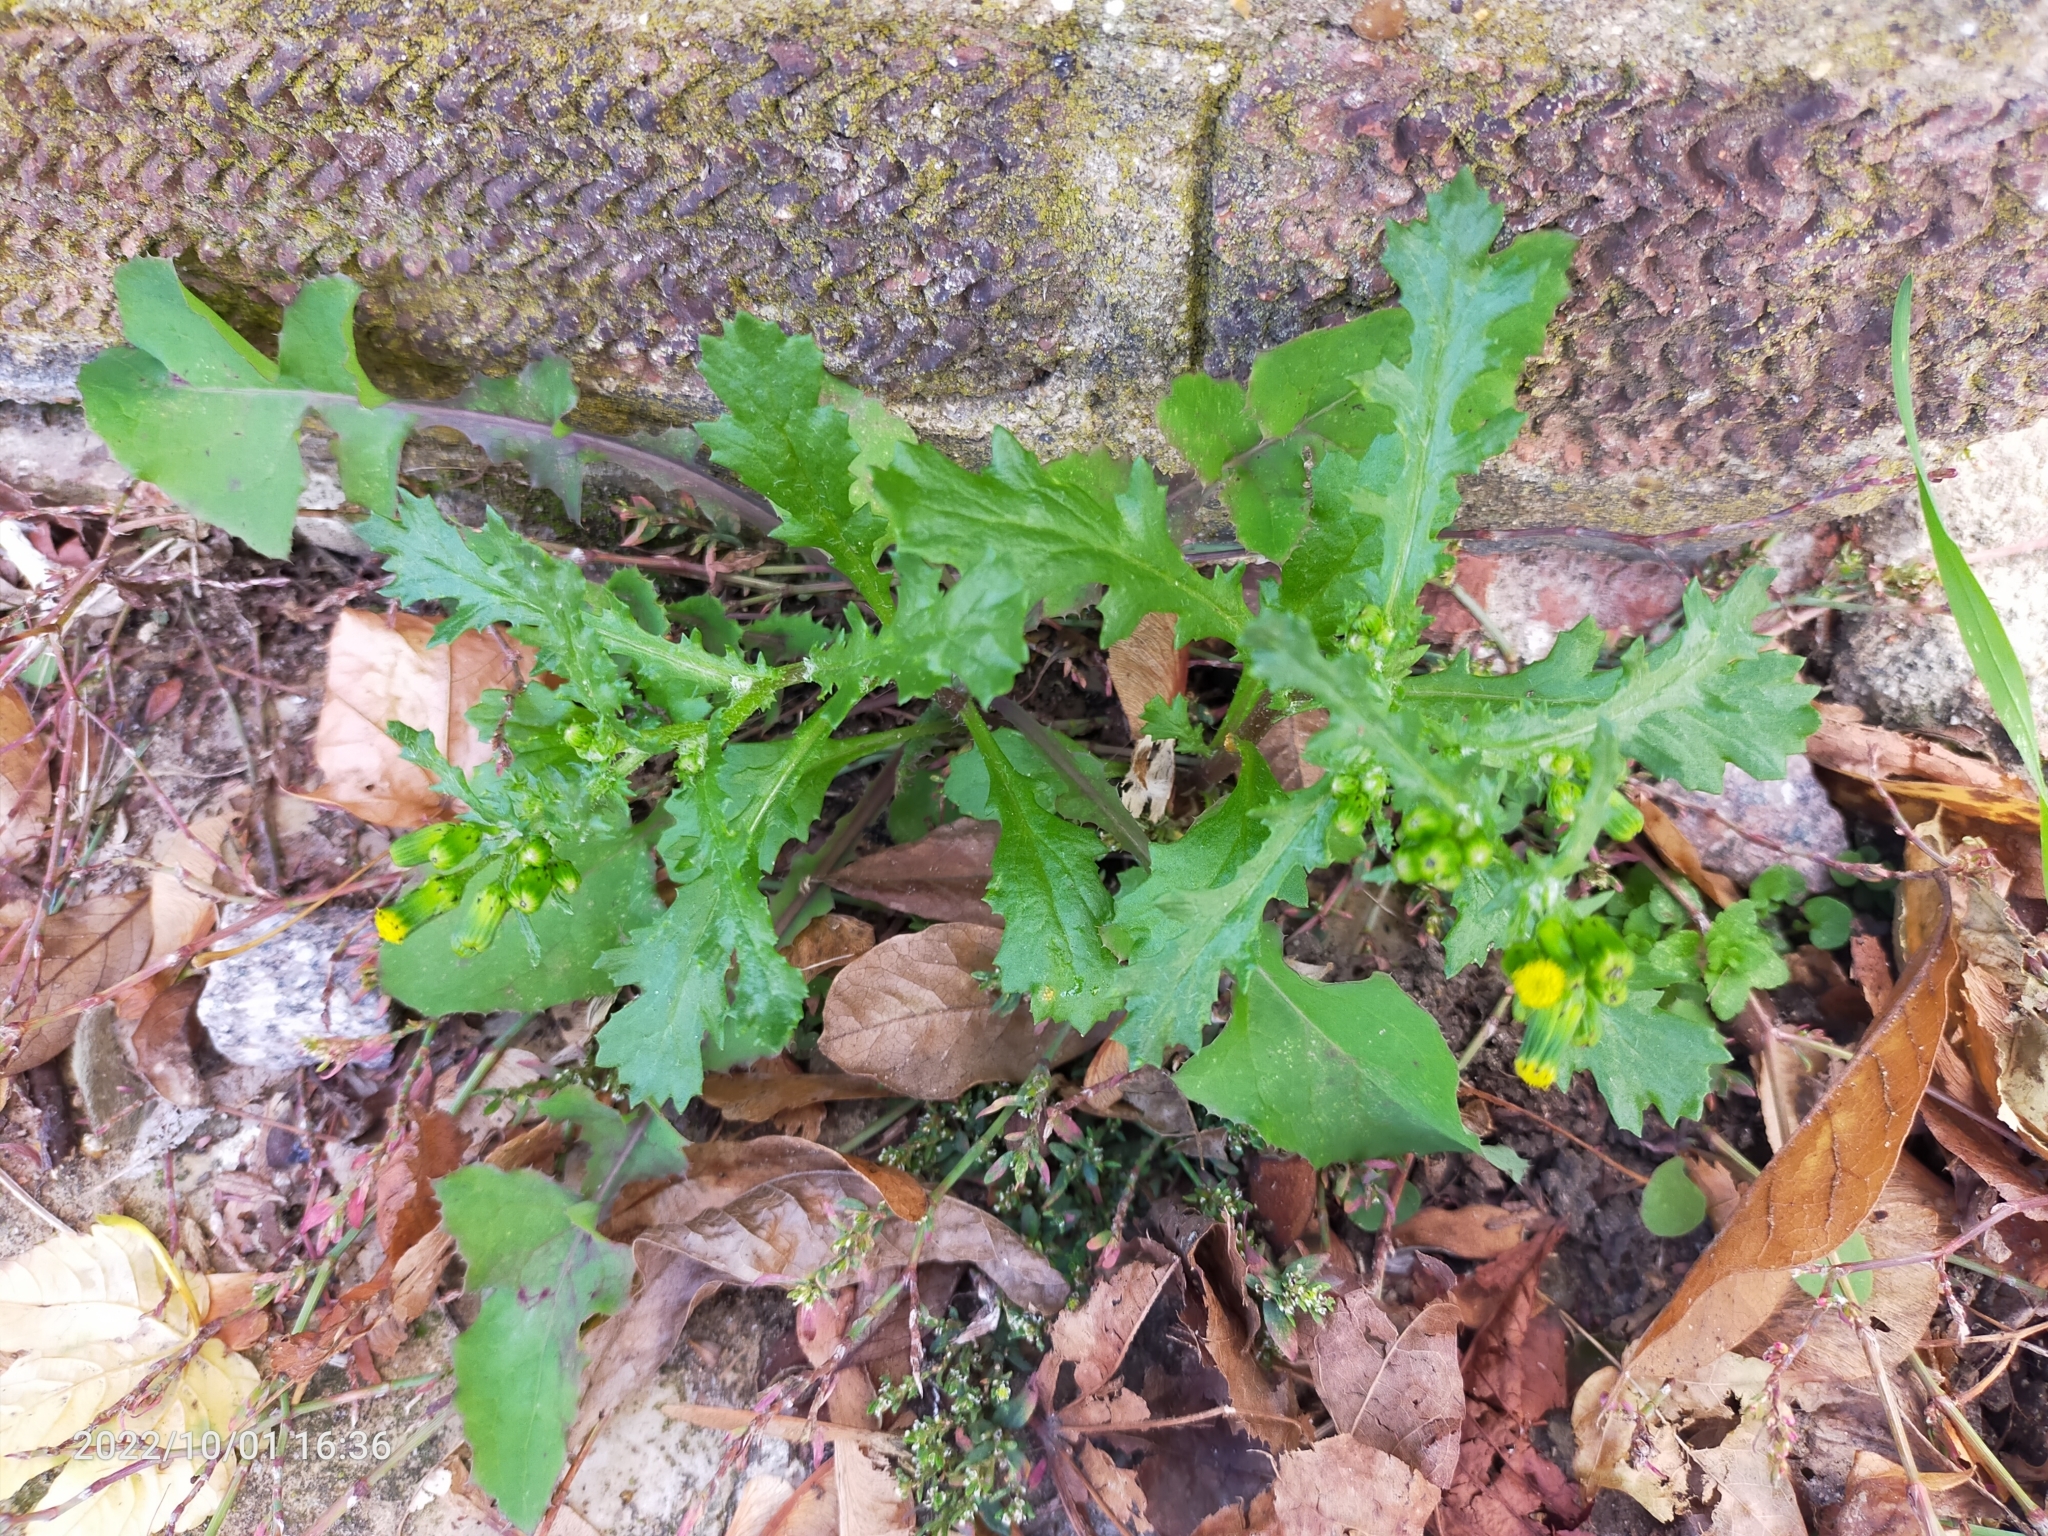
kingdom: Plantae
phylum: Tracheophyta
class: Magnoliopsida
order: Asterales
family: Asteraceae
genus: Senecio
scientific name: Senecio vulgaris
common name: Old-man-in-the-spring
